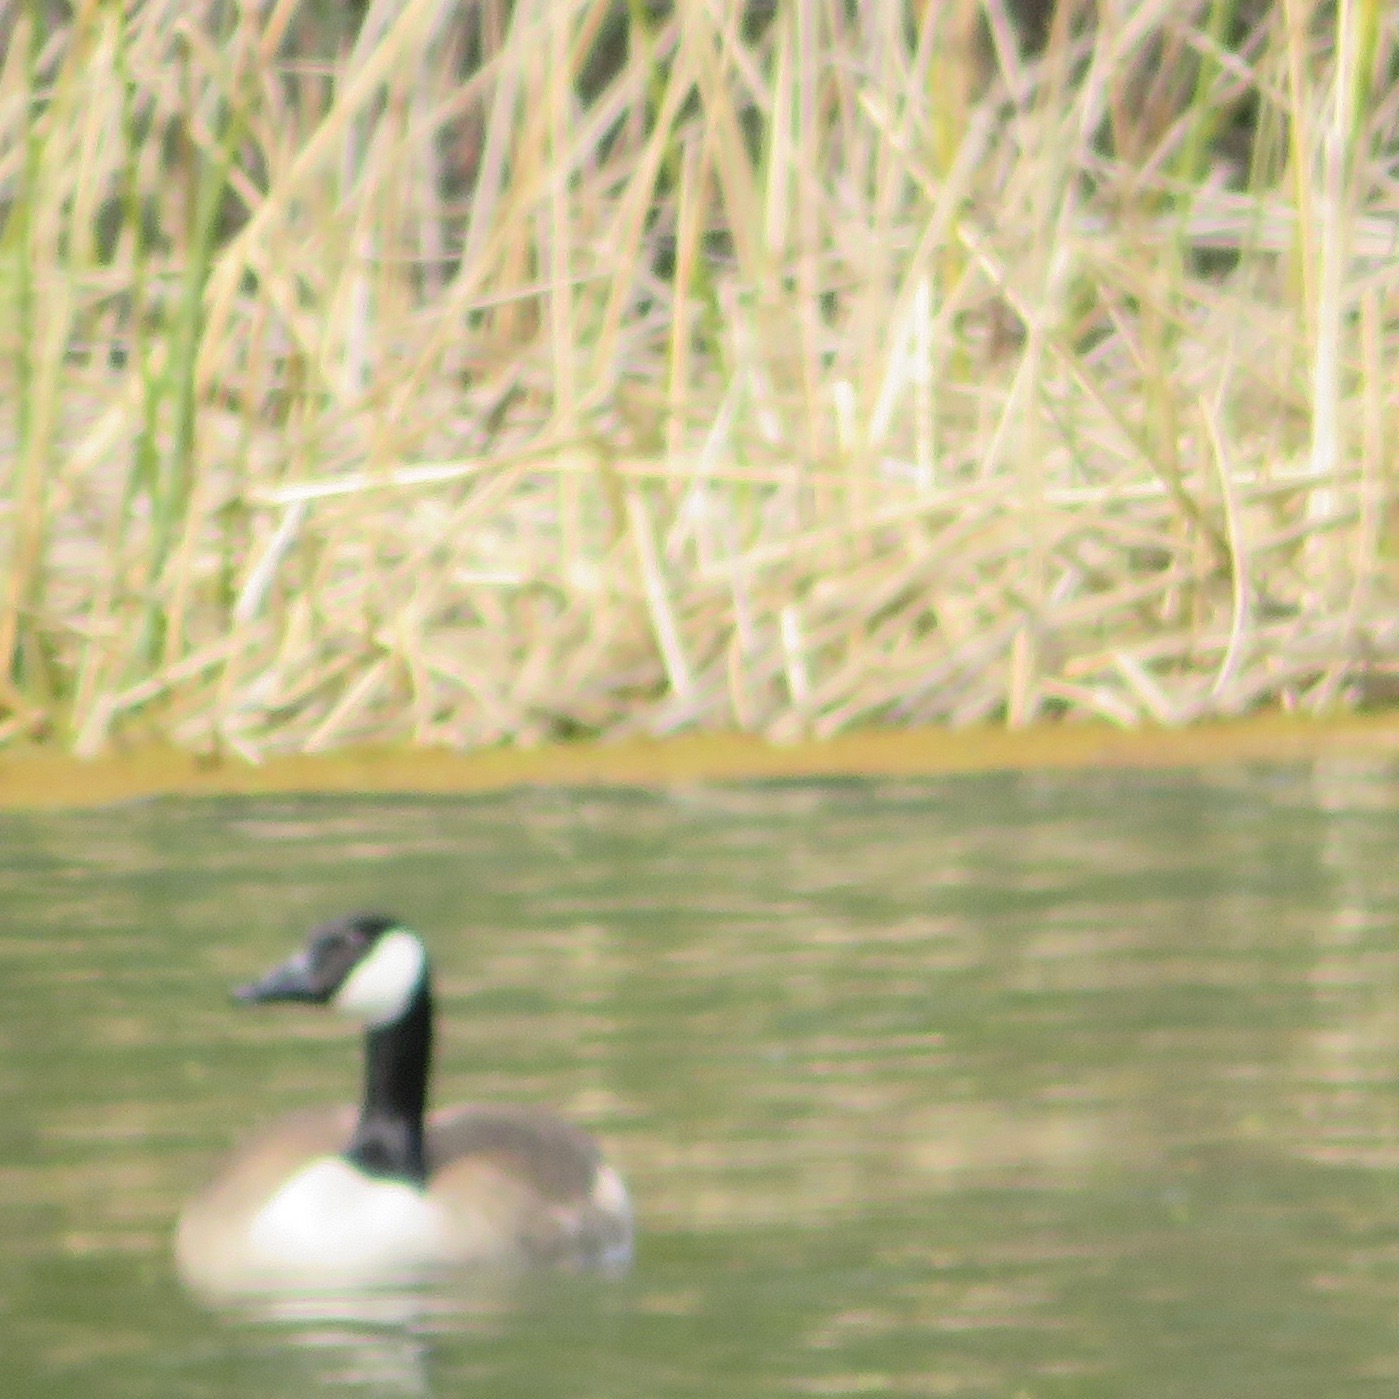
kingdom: Animalia
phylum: Chordata
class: Aves
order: Anseriformes
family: Anatidae
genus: Branta
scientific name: Branta canadensis
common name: Canada goose
